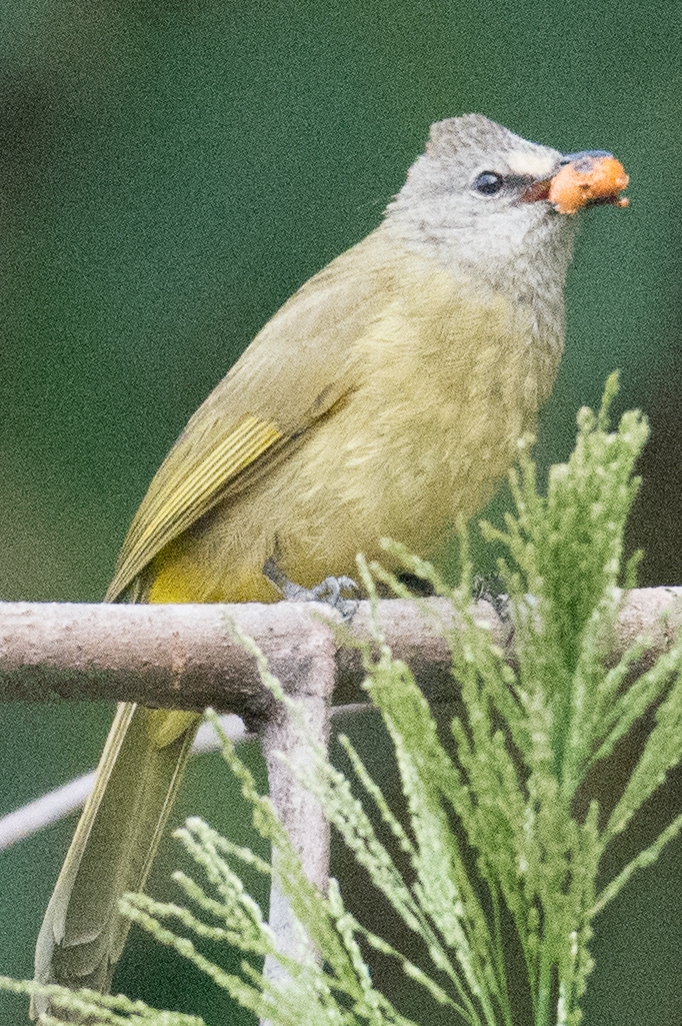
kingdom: Animalia
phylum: Chordata
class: Aves
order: Passeriformes
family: Pycnonotidae
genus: Pycnonotus
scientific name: Pycnonotus flavescens
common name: Flavescent bulbul
